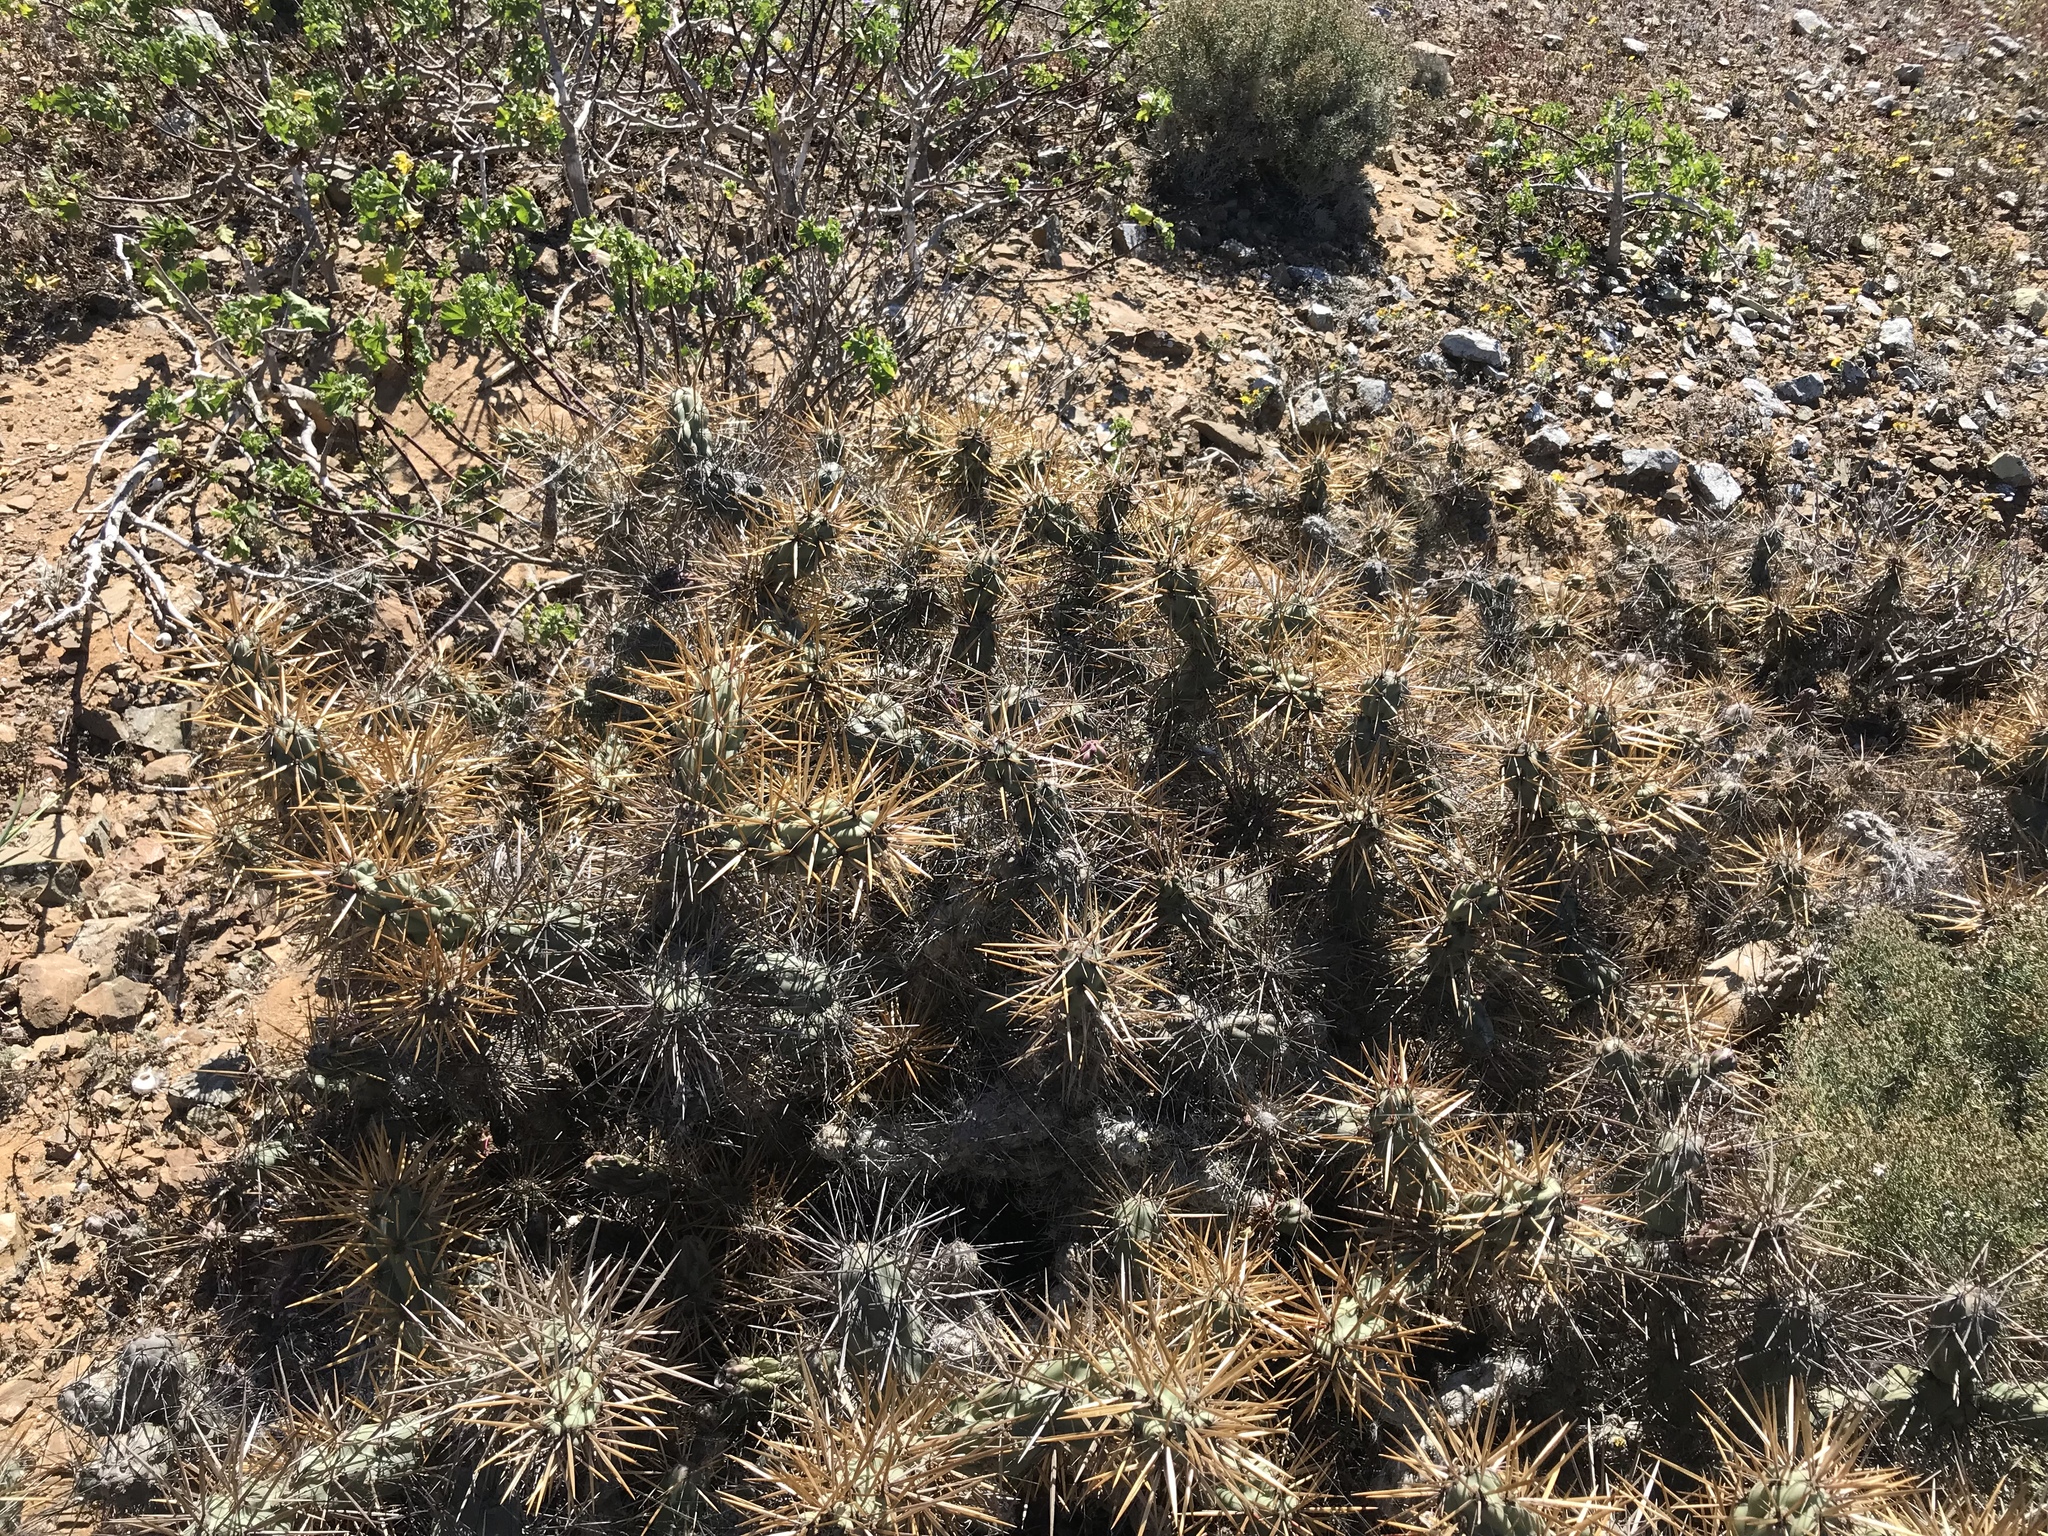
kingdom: Plantae
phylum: Tracheophyta
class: Magnoliopsida
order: Caryophyllales
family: Cactaceae
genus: Cylindropuntia
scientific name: Cylindropuntia cedrosensis
